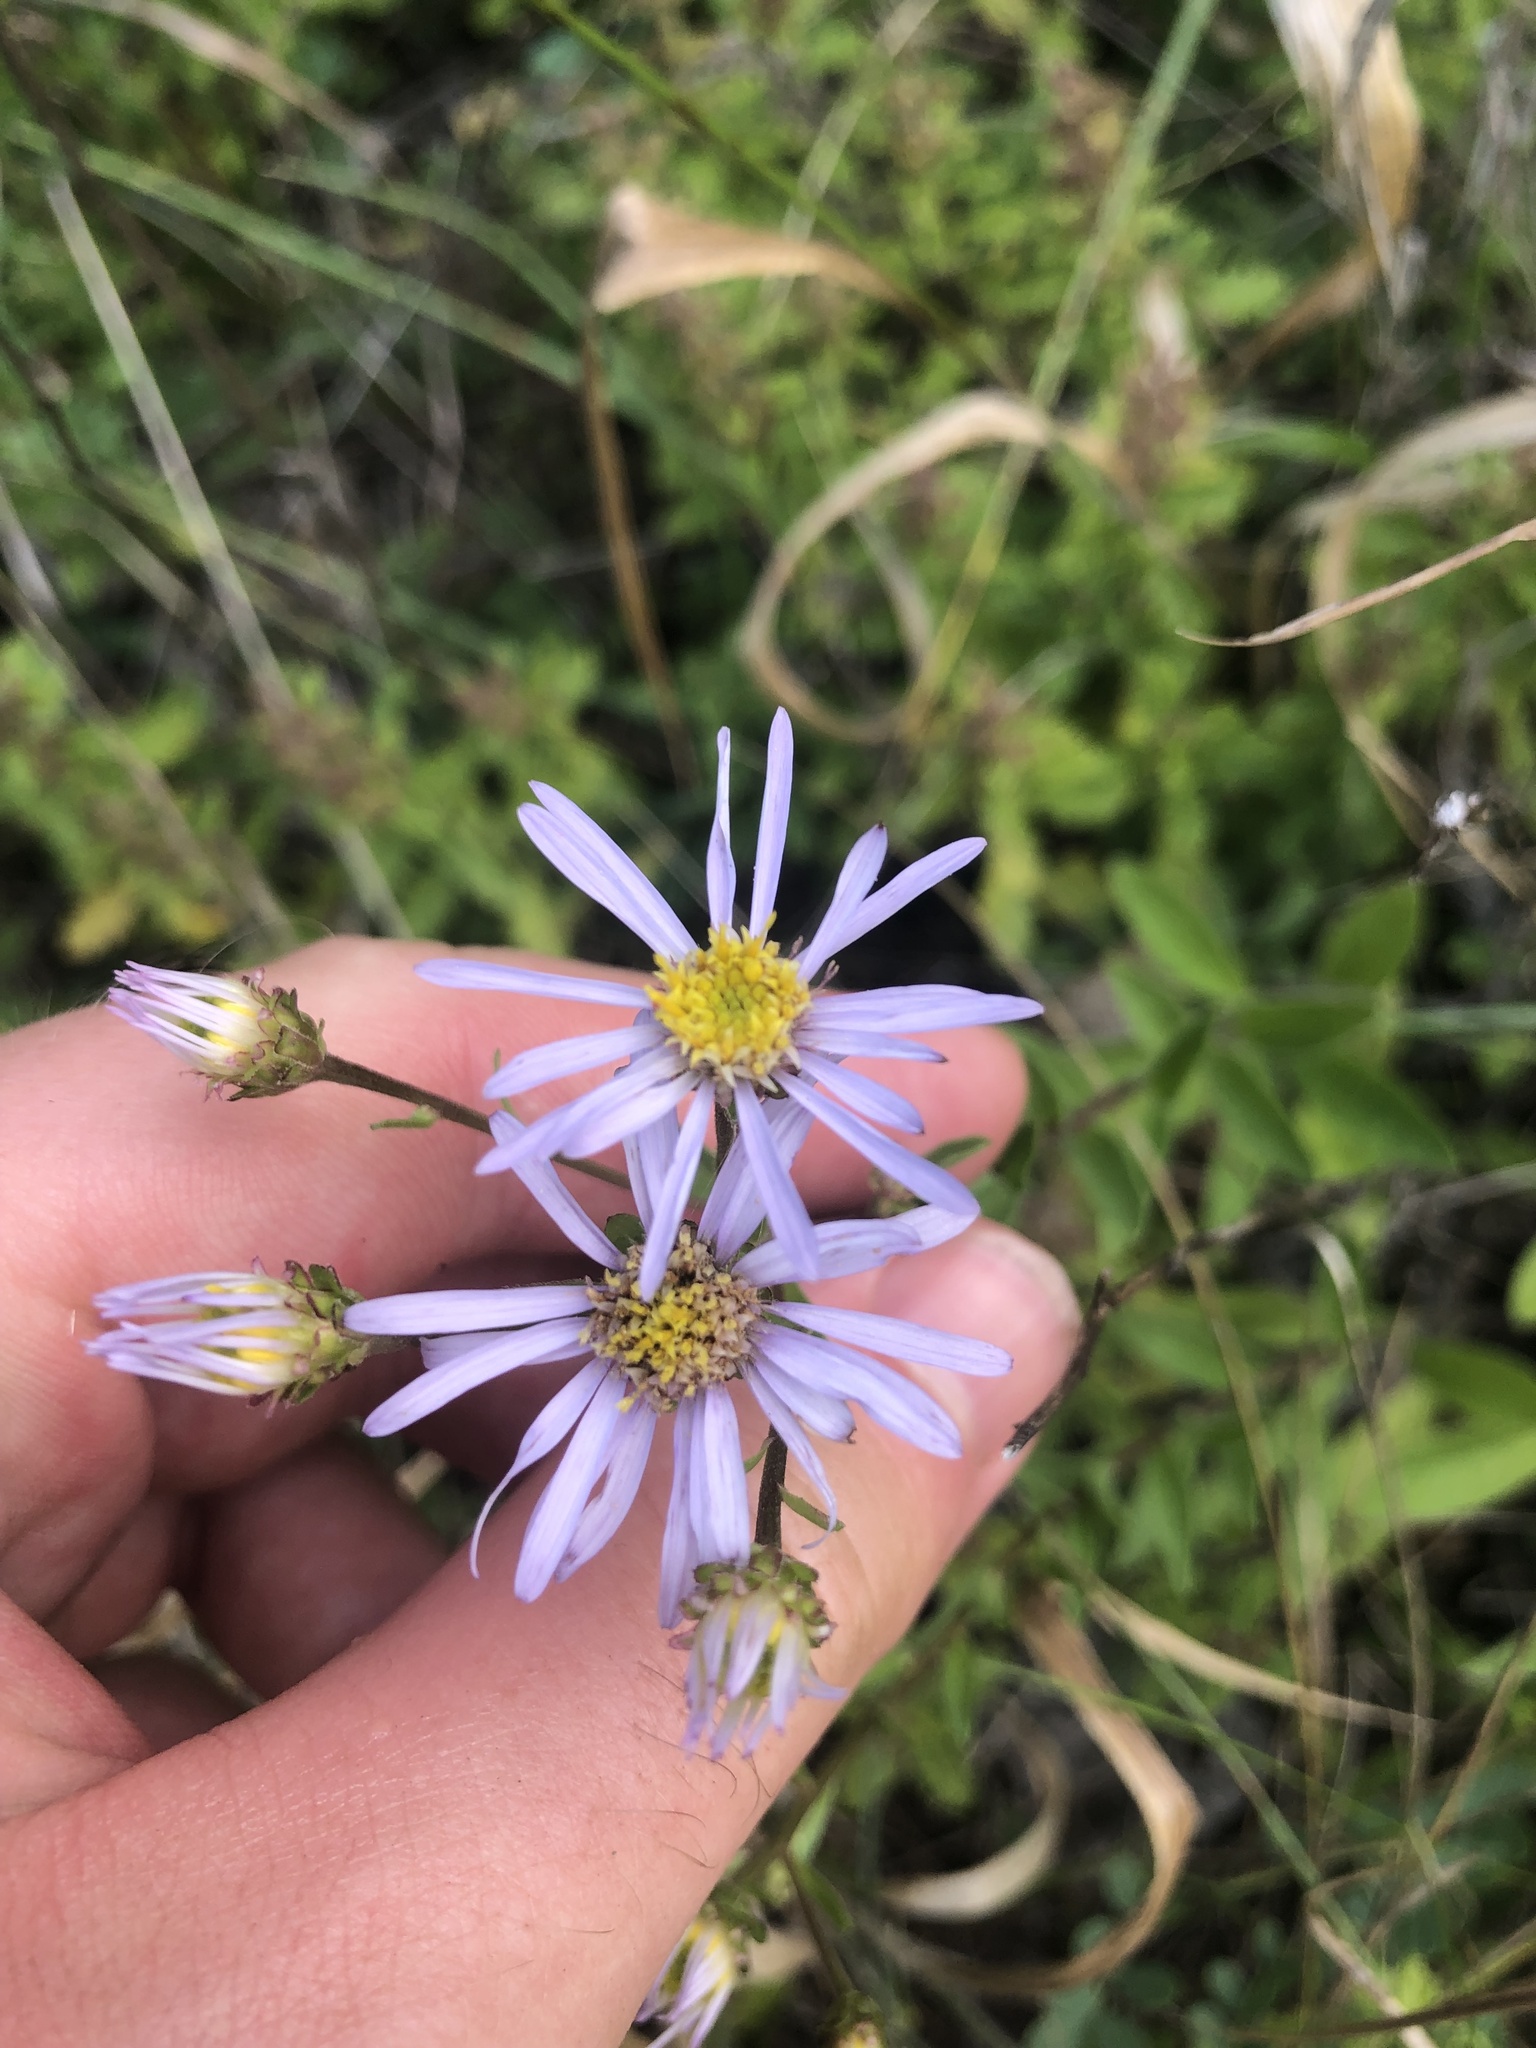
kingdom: Plantae
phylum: Tracheophyta
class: Magnoliopsida
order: Asterales
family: Asteraceae
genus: Aster
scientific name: Aster amellus
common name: European michaelmas daisy
